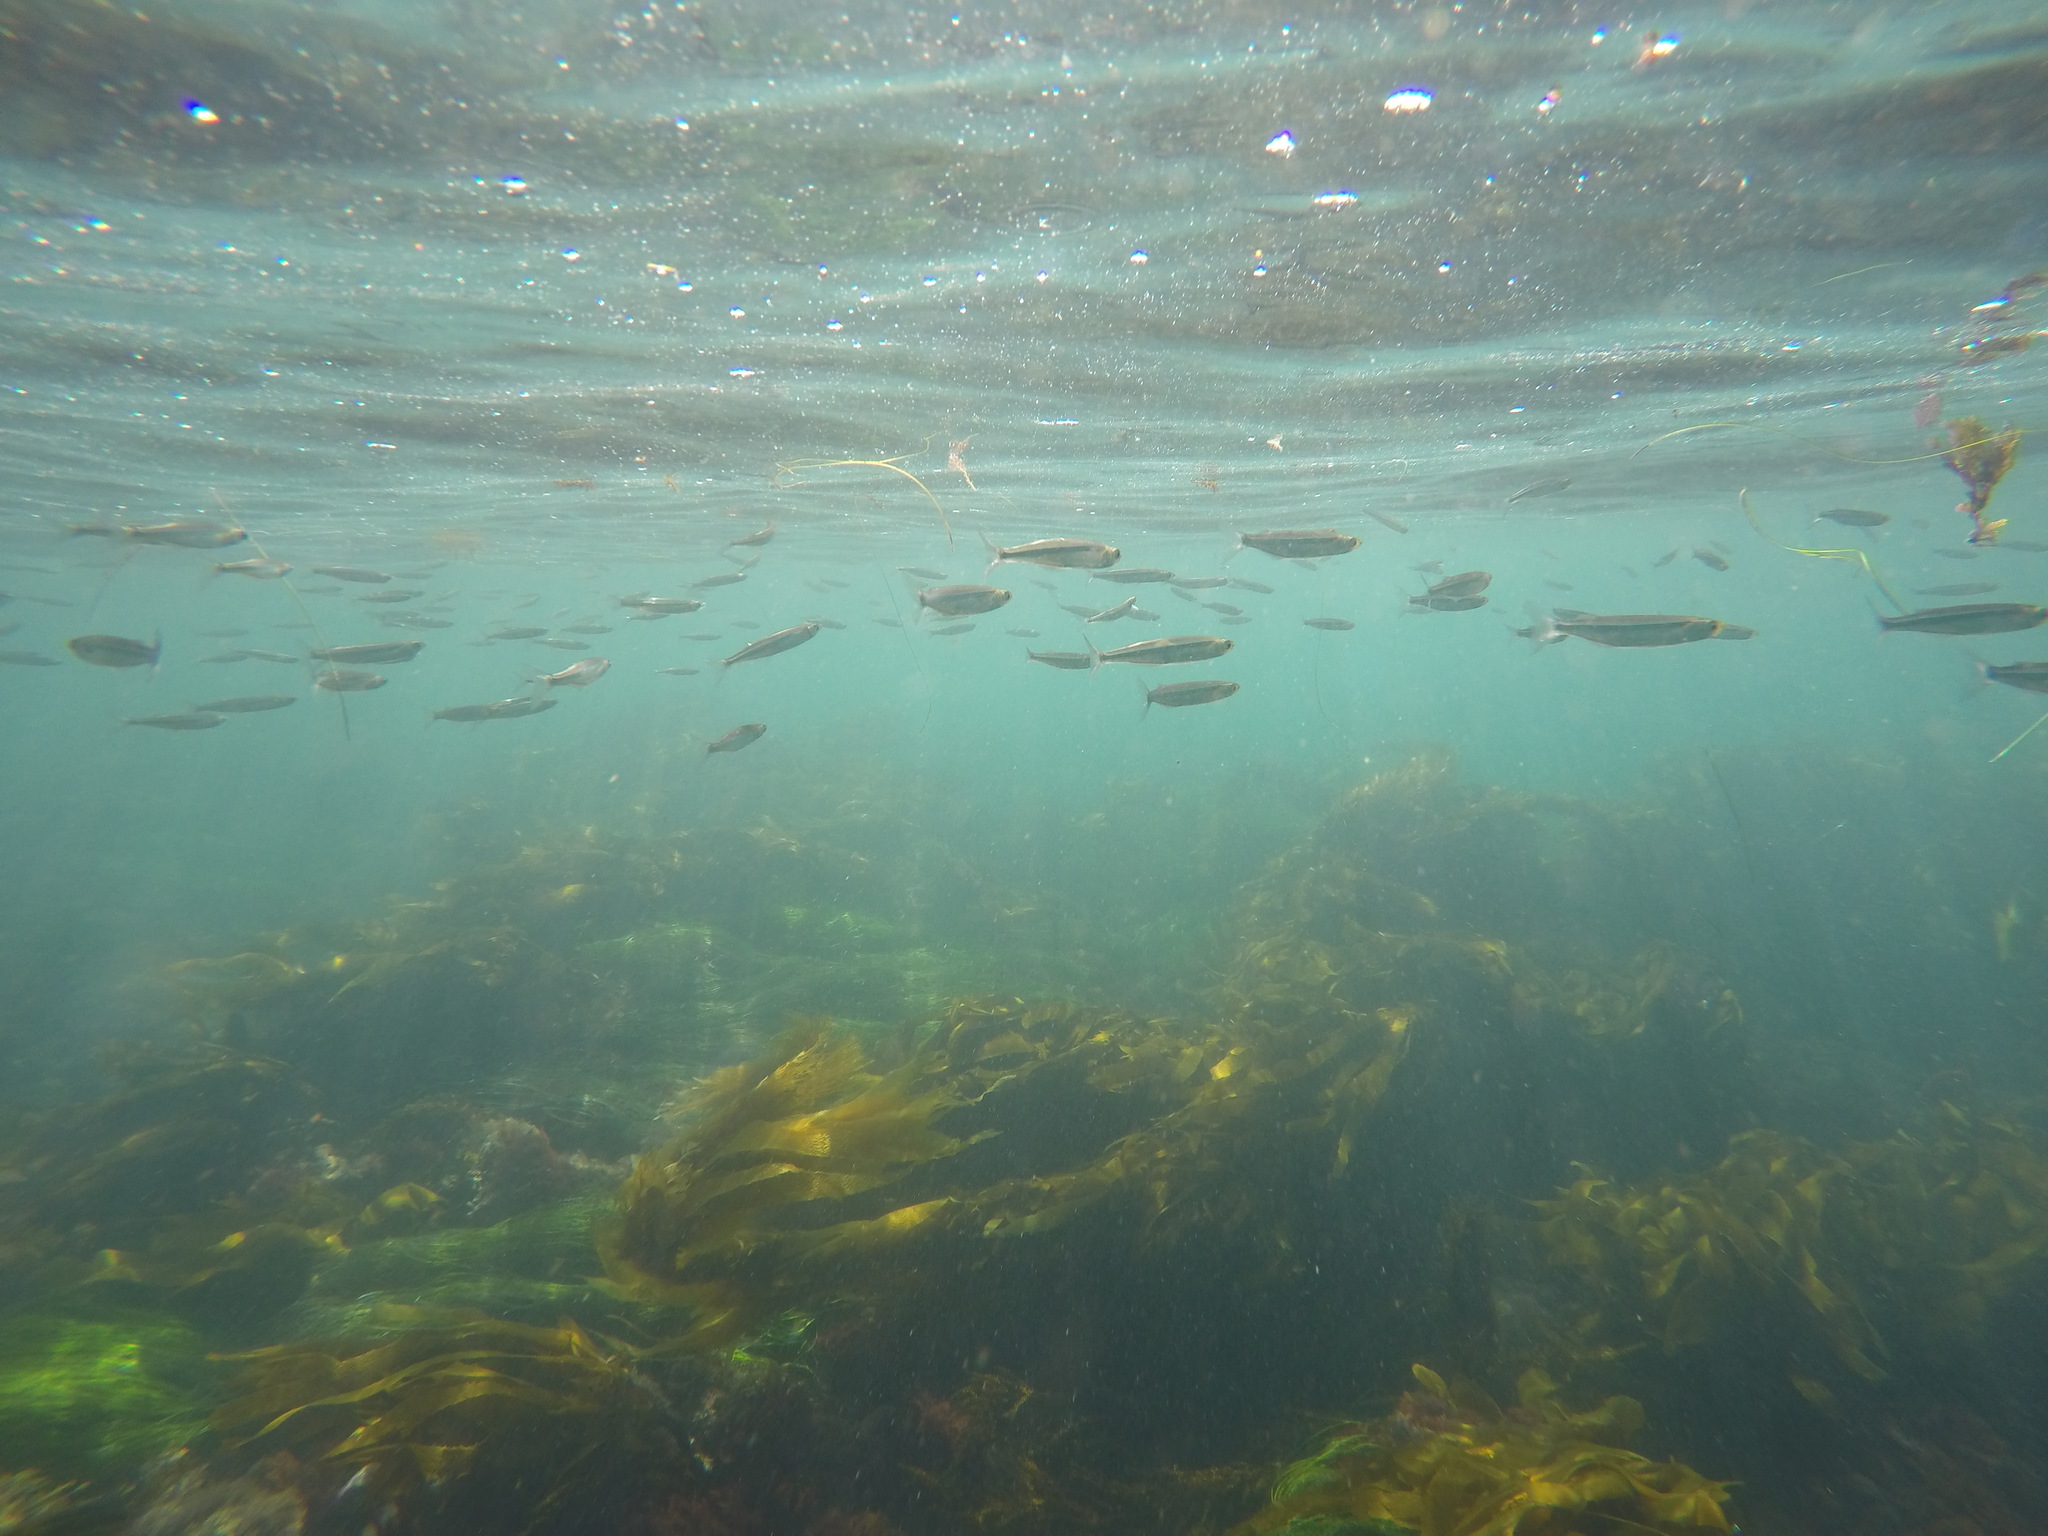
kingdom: Animalia
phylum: Chordata
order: Atheriniformes
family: Atherinopsidae
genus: Atherinops
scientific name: Atherinops affinis
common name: Topsmelt
